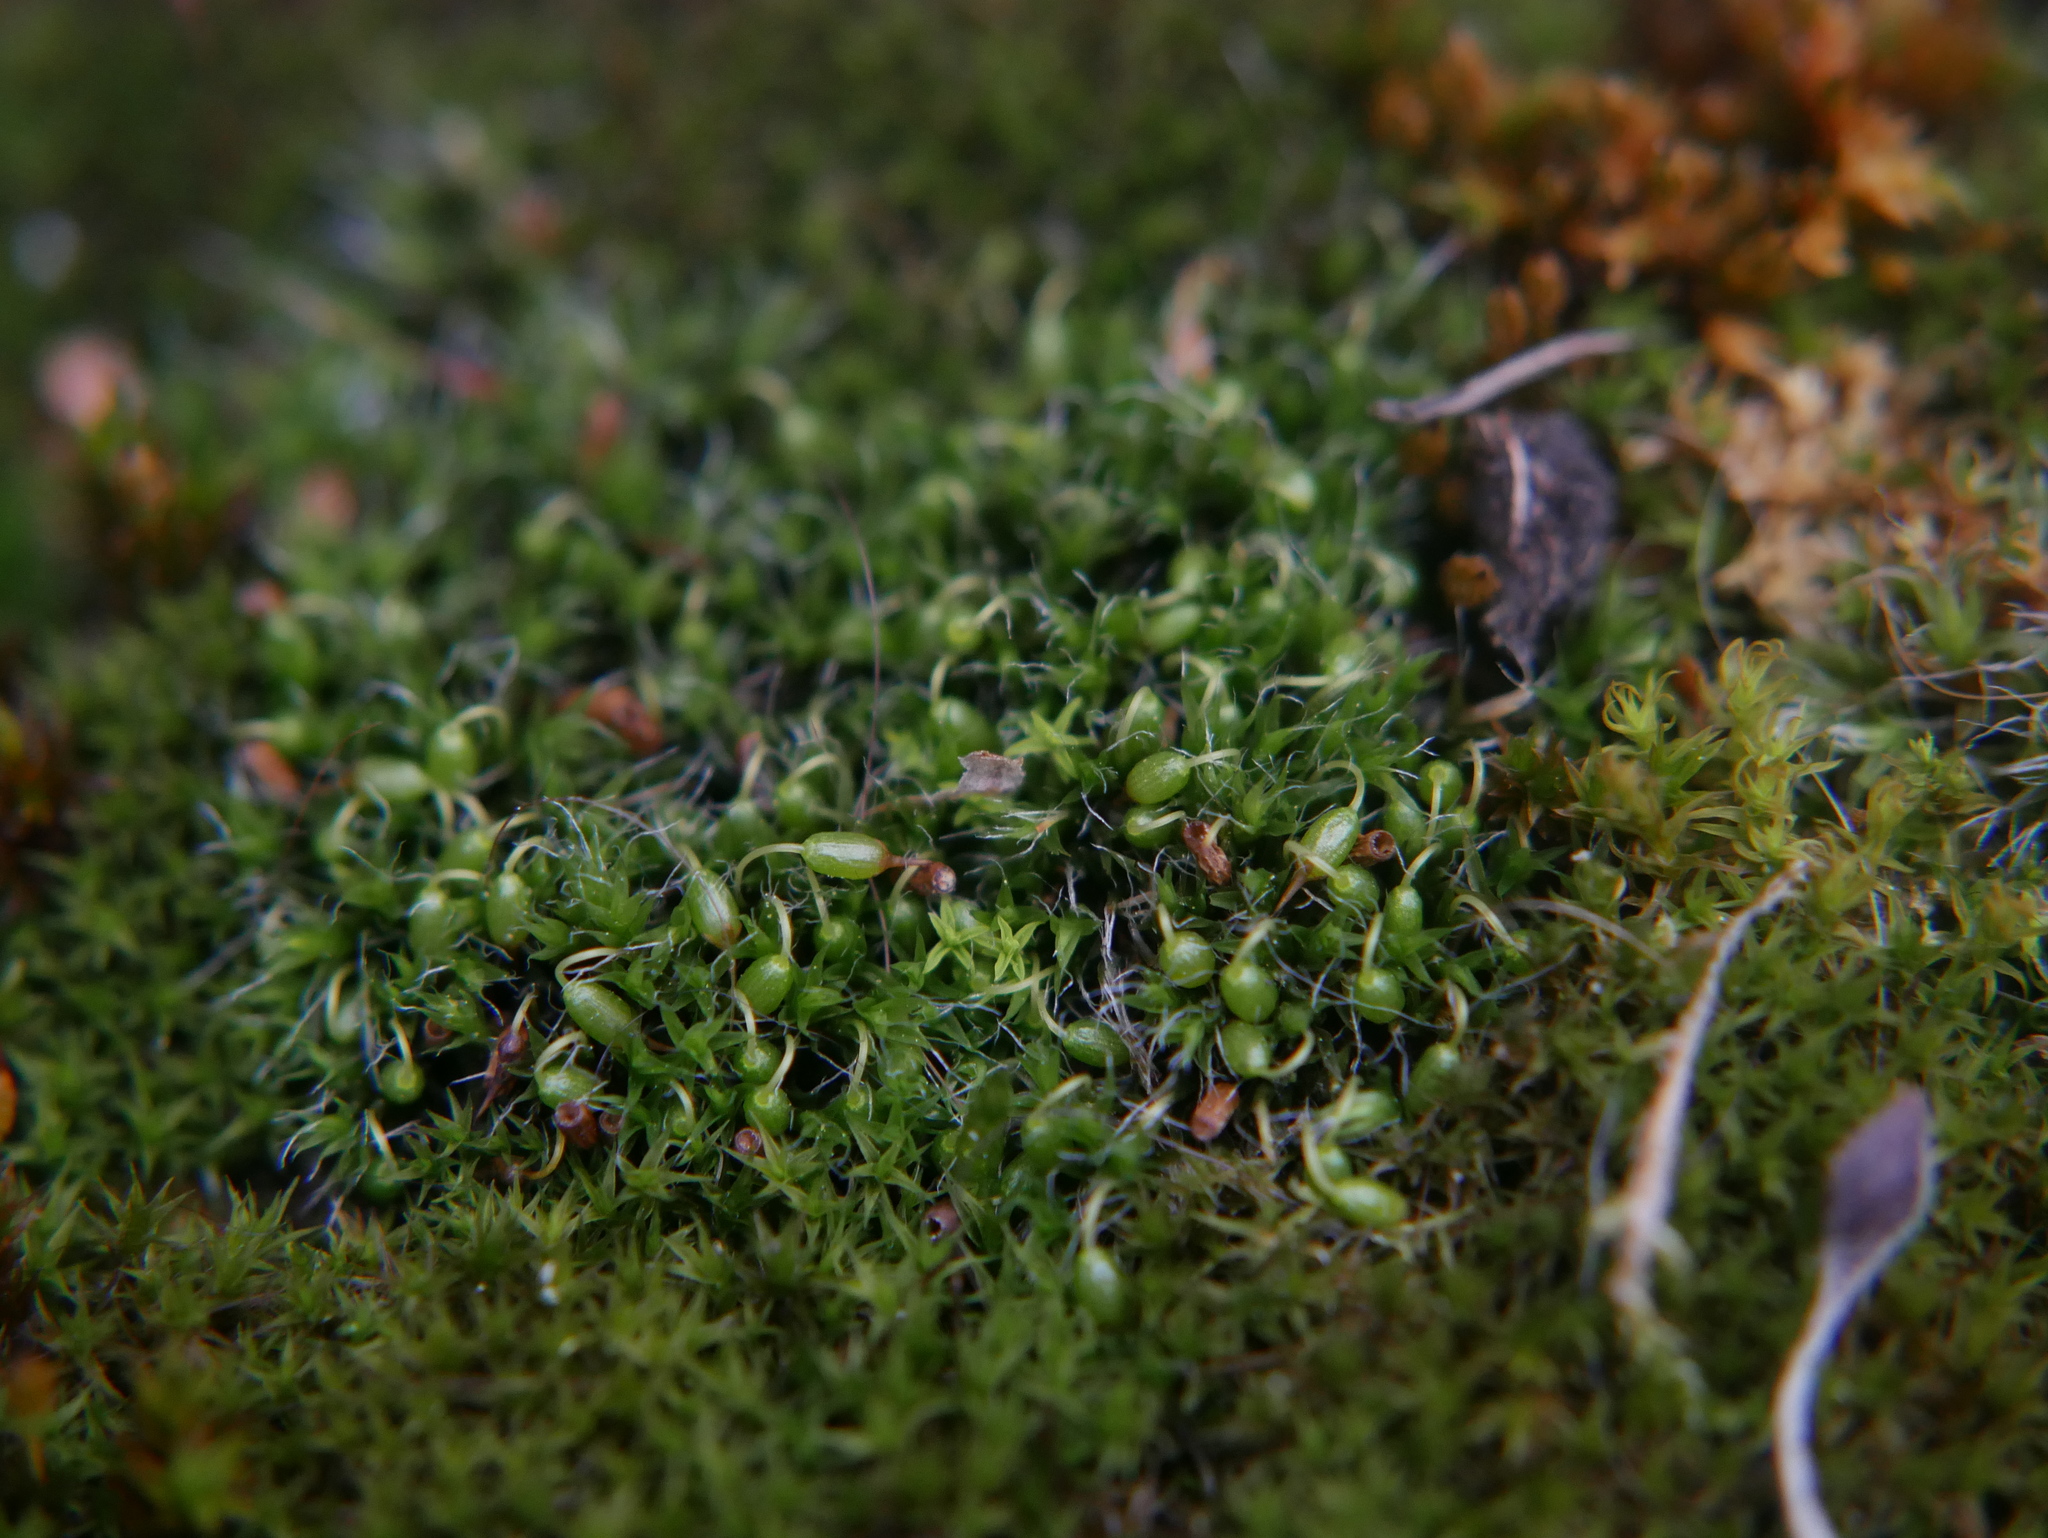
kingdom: Plantae
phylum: Bryophyta
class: Bryopsida
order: Grimmiales
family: Grimmiaceae
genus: Grimmia
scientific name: Grimmia pulvinata
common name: Grey-cushioned grimmia
